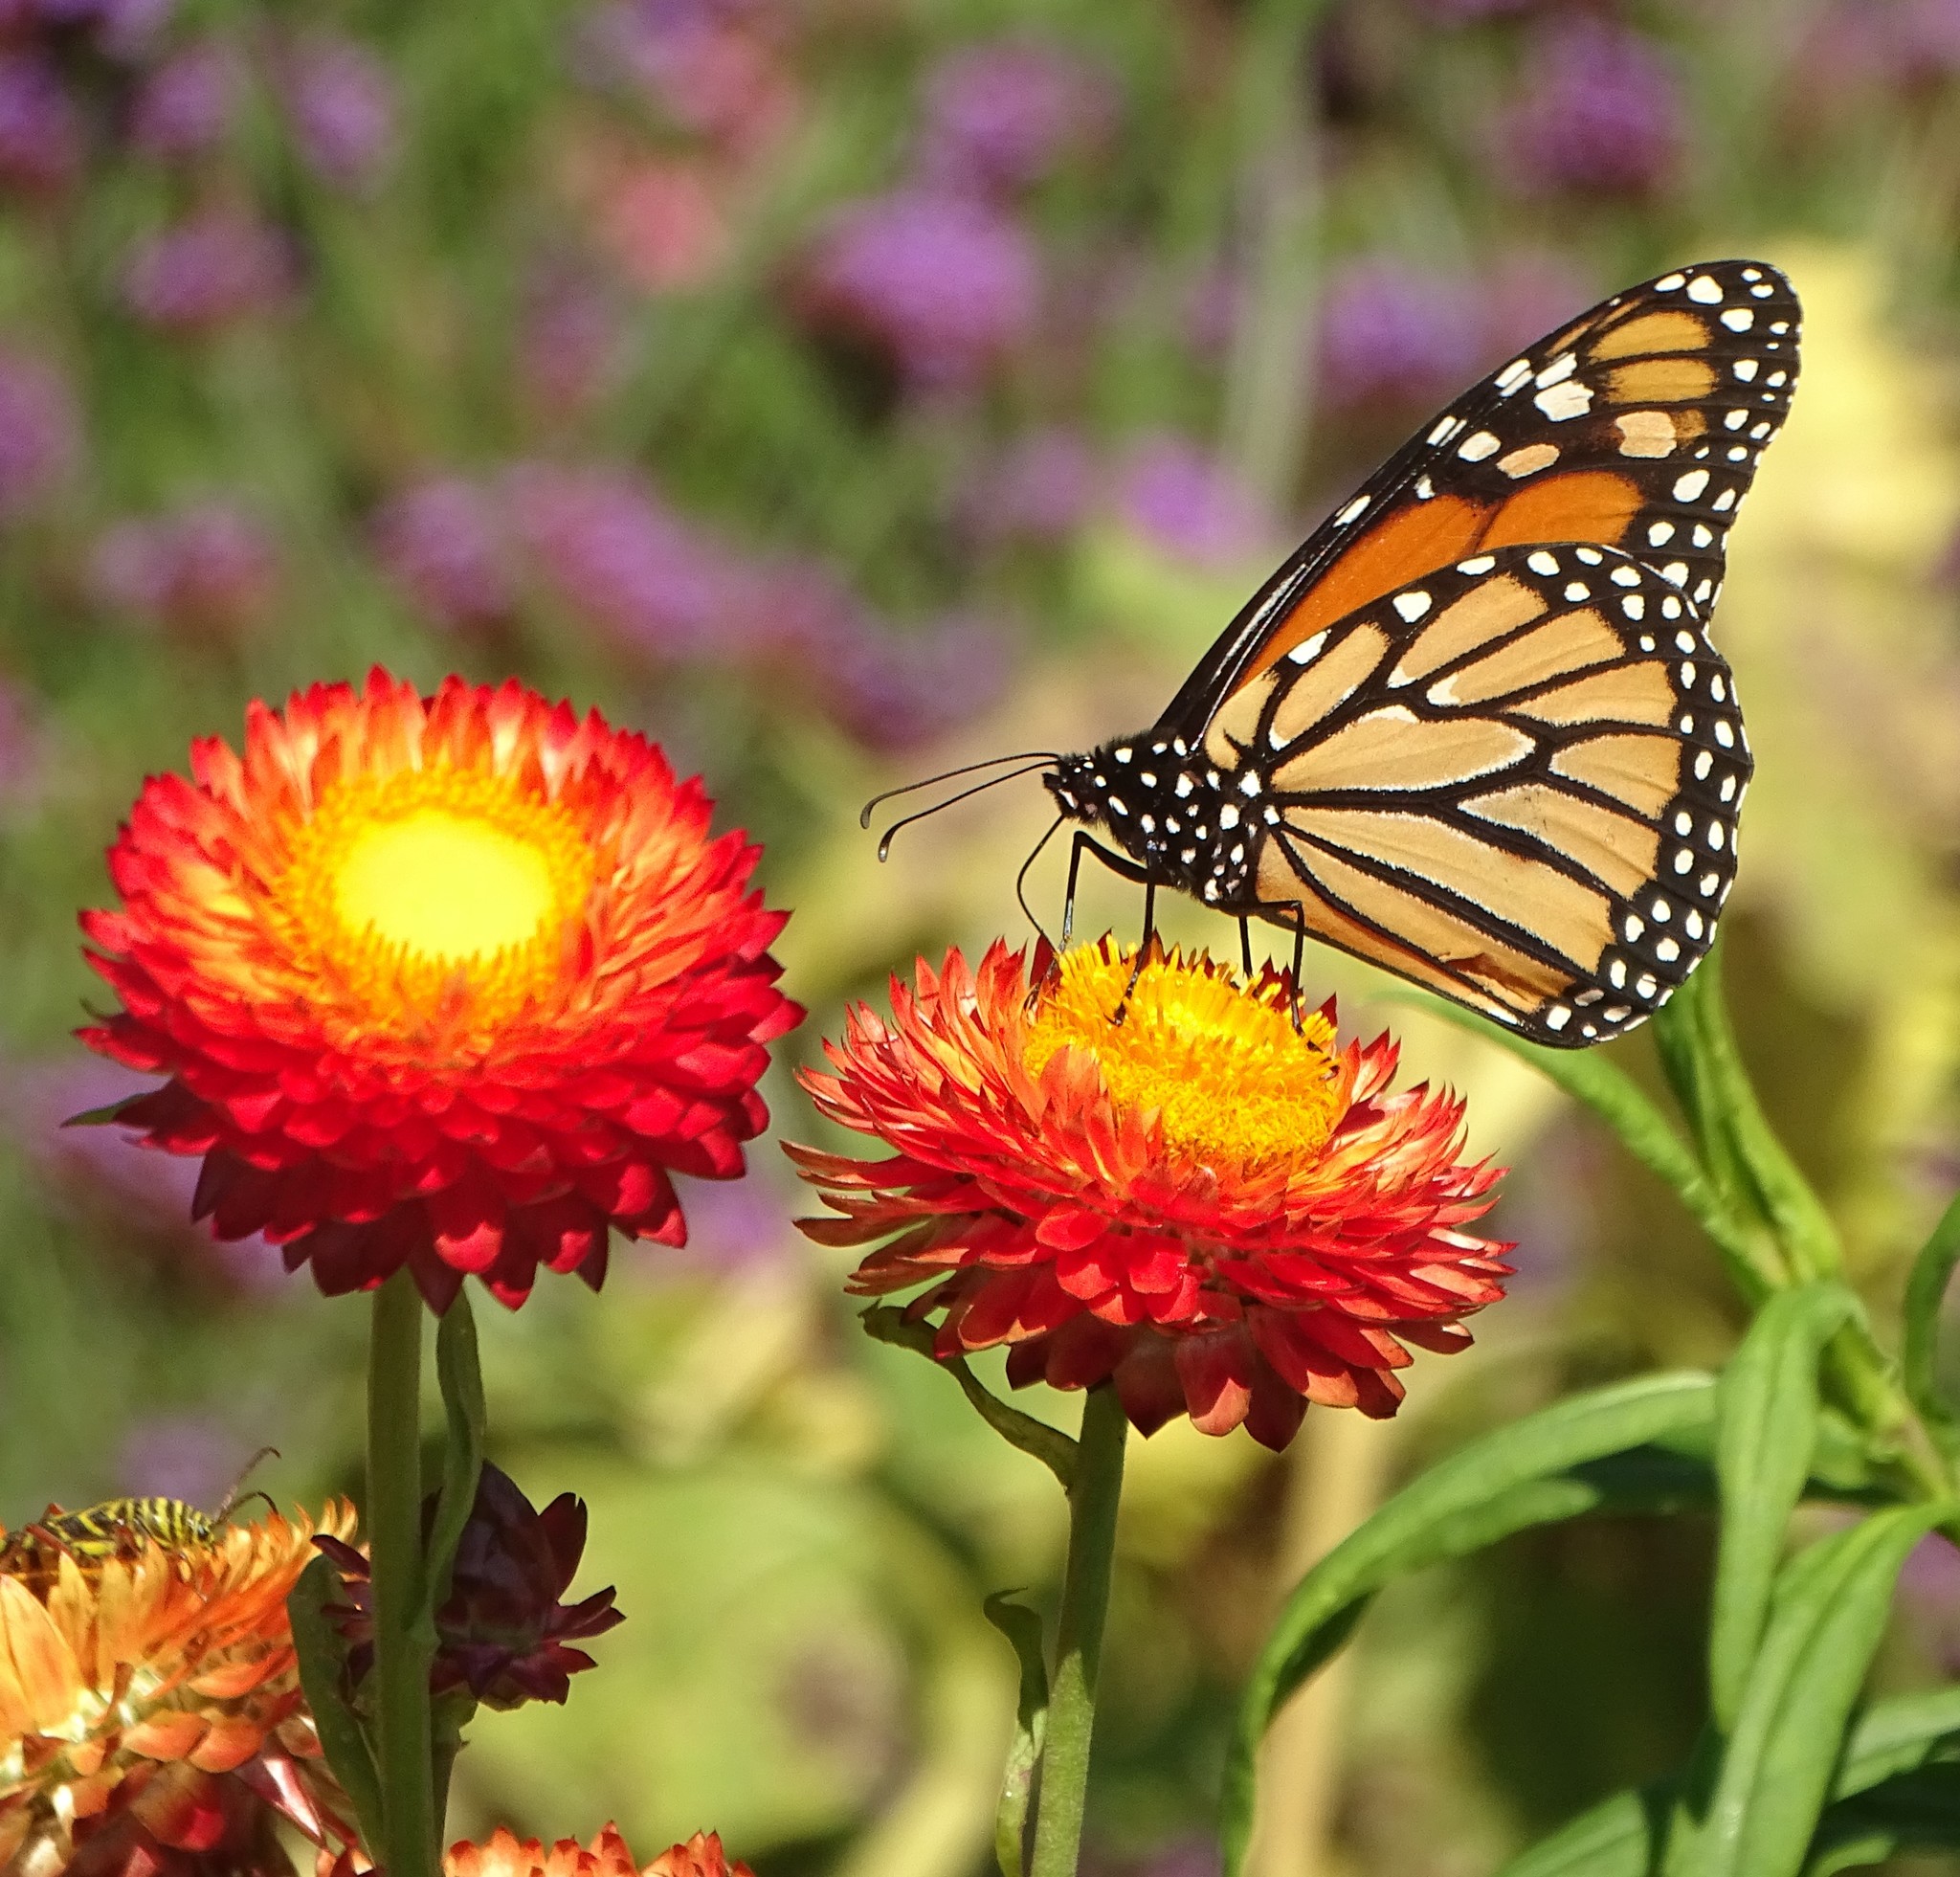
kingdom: Animalia
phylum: Arthropoda
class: Insecta
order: Lepidoptera
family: Nymphalidae
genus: Danaus
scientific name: Danaus plexippus
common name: Monarch
